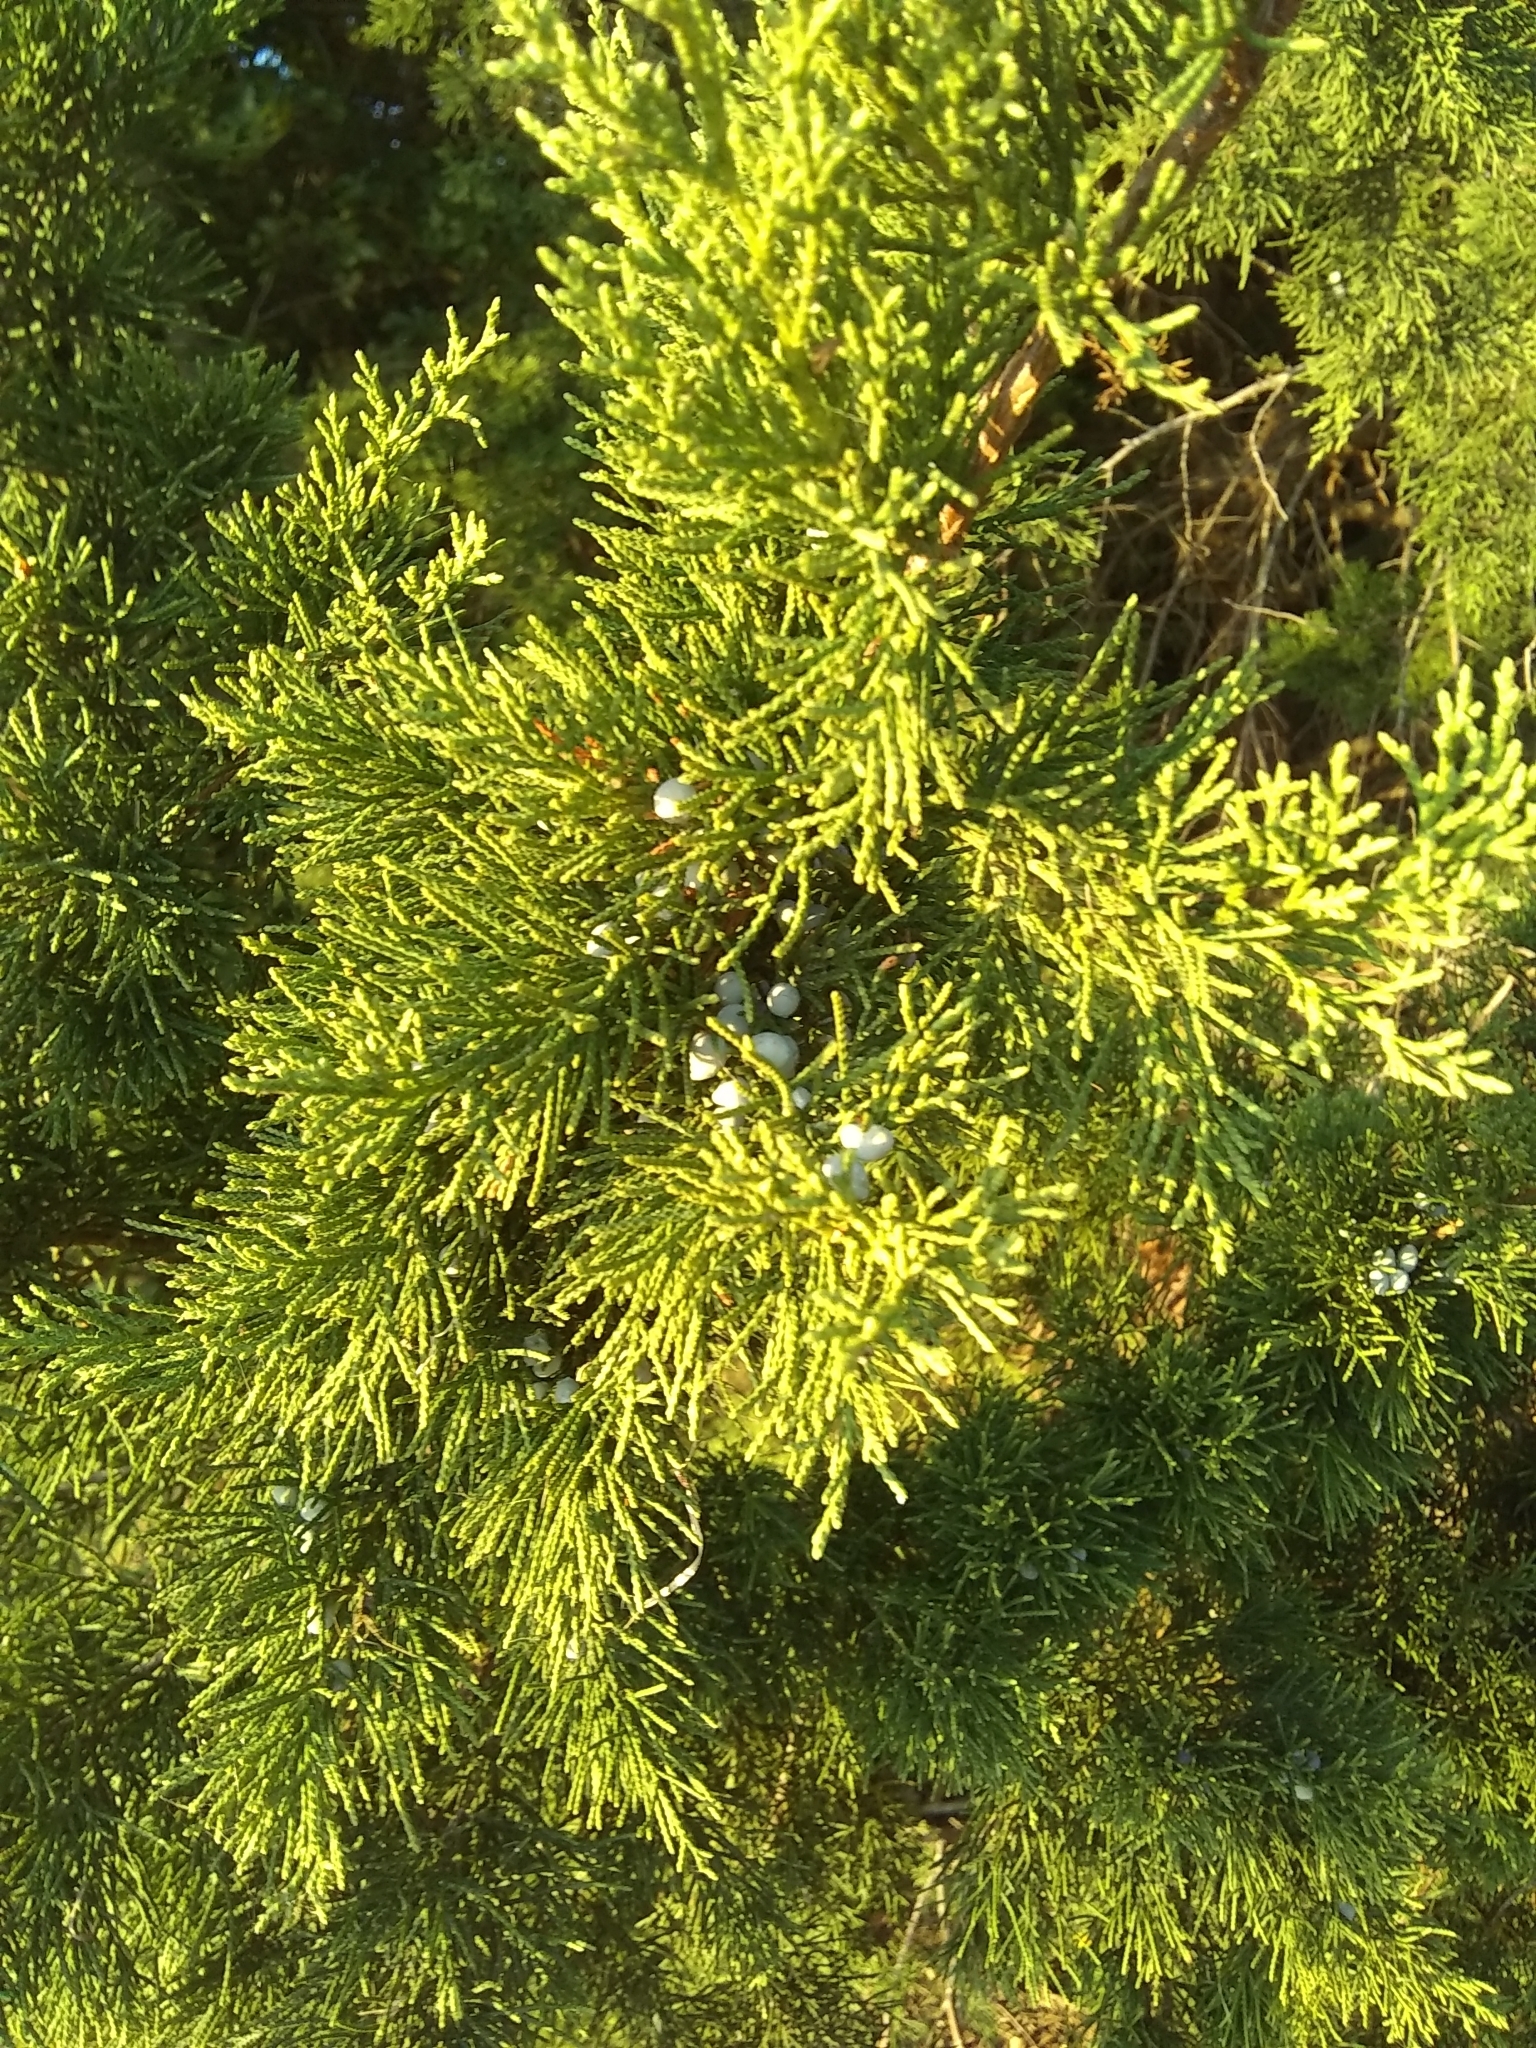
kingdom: Plantae
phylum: Tracheophyta
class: Pinopsida
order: Pinales
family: Cupressaceae
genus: Juniperus
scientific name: Juniperus virginiana
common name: Red juniper
